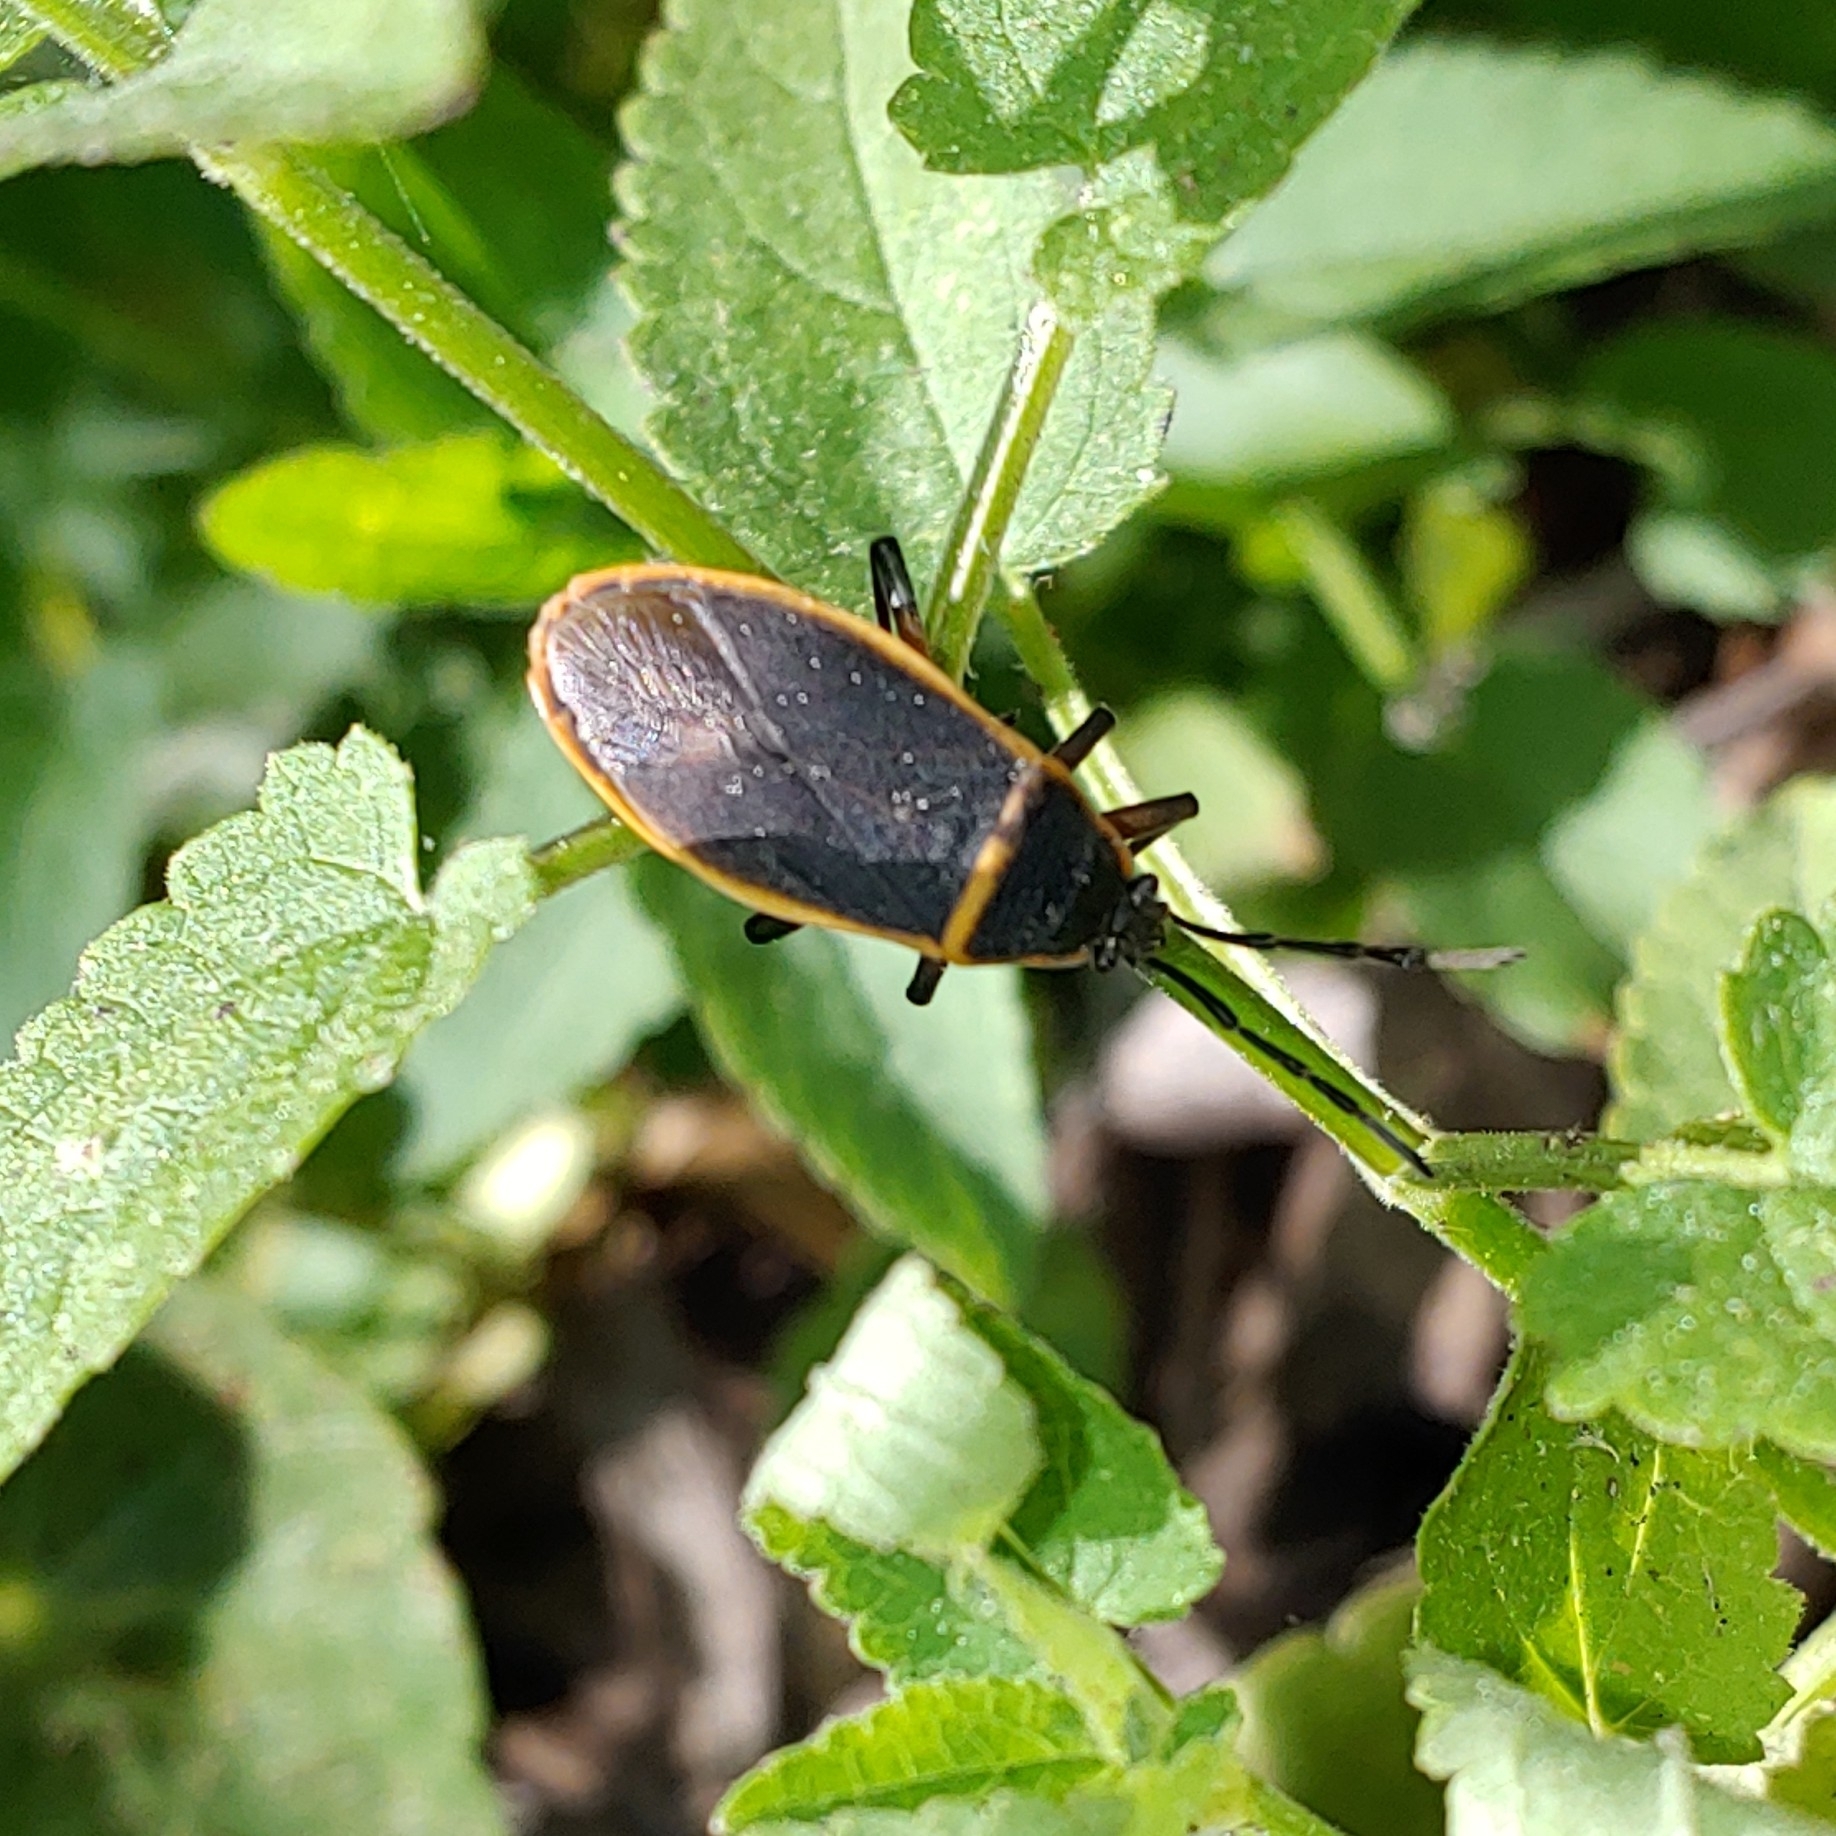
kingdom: Animalia
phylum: Arthropoda
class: Insecta
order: Hemiptera
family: Largidae
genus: Largus
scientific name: Largus succinctus
